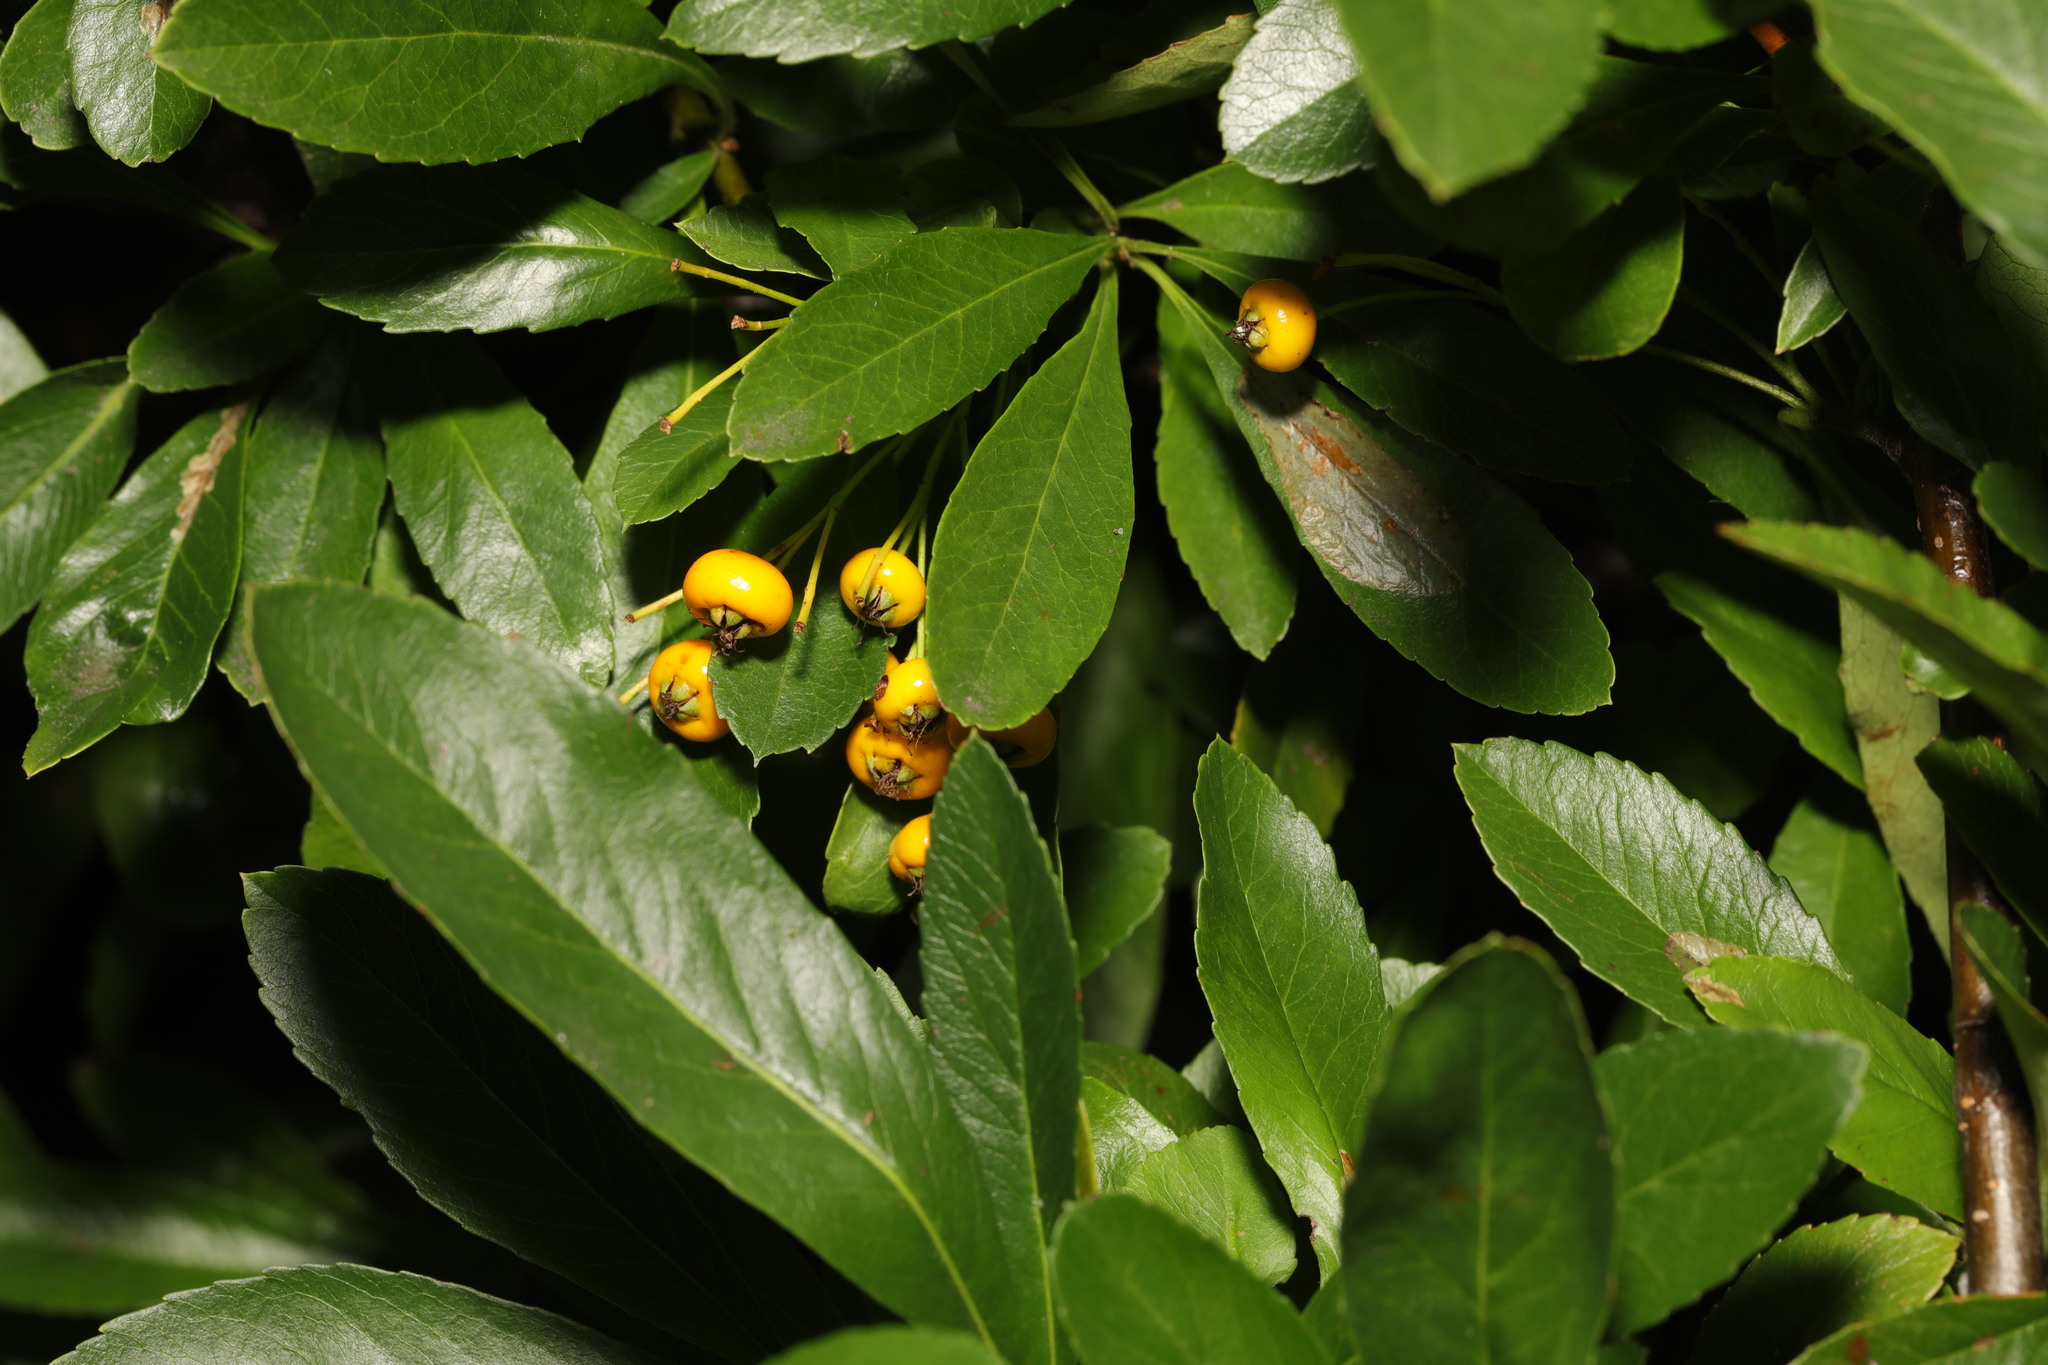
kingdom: Plantae
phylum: Tracheophyta
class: Magnoliopsida
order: Rosales
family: Rosaceae
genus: Pyracantha
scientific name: Pyracantha coccinea
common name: Firethorn
